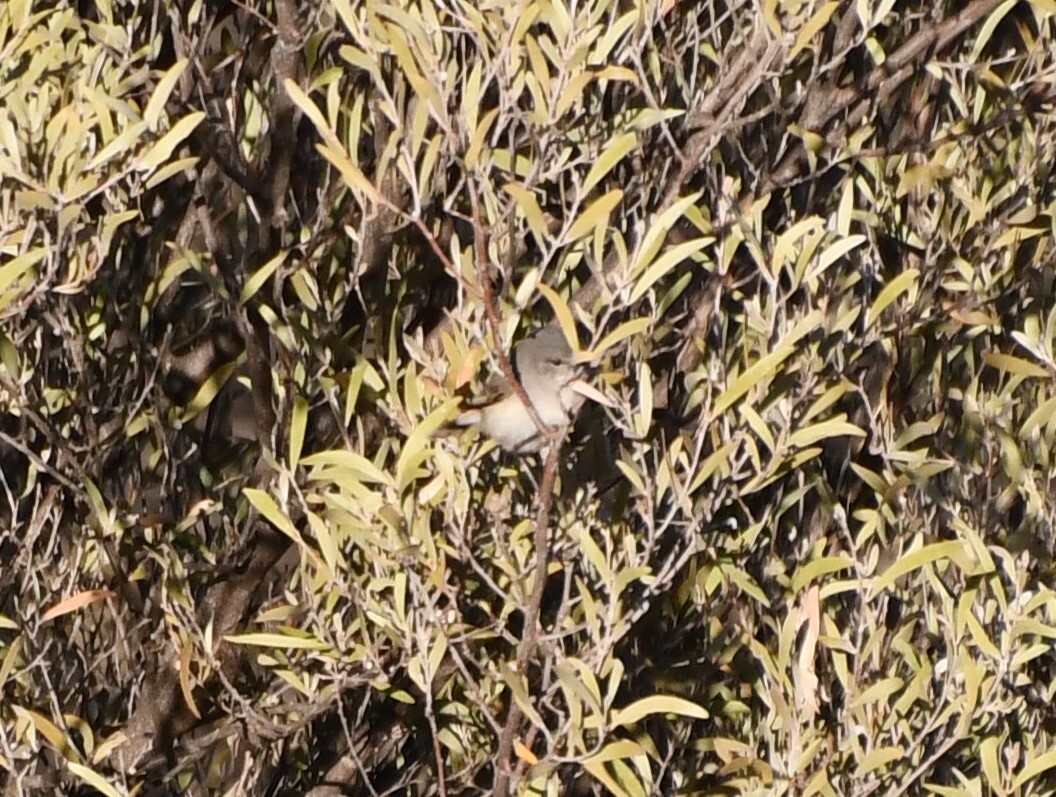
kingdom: Animalia
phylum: Chordata
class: Aves
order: Passeriformes
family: Acanthizidae
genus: Acanthiza
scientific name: Acanthiza robustirostris
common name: Slaty-backed thornbill
